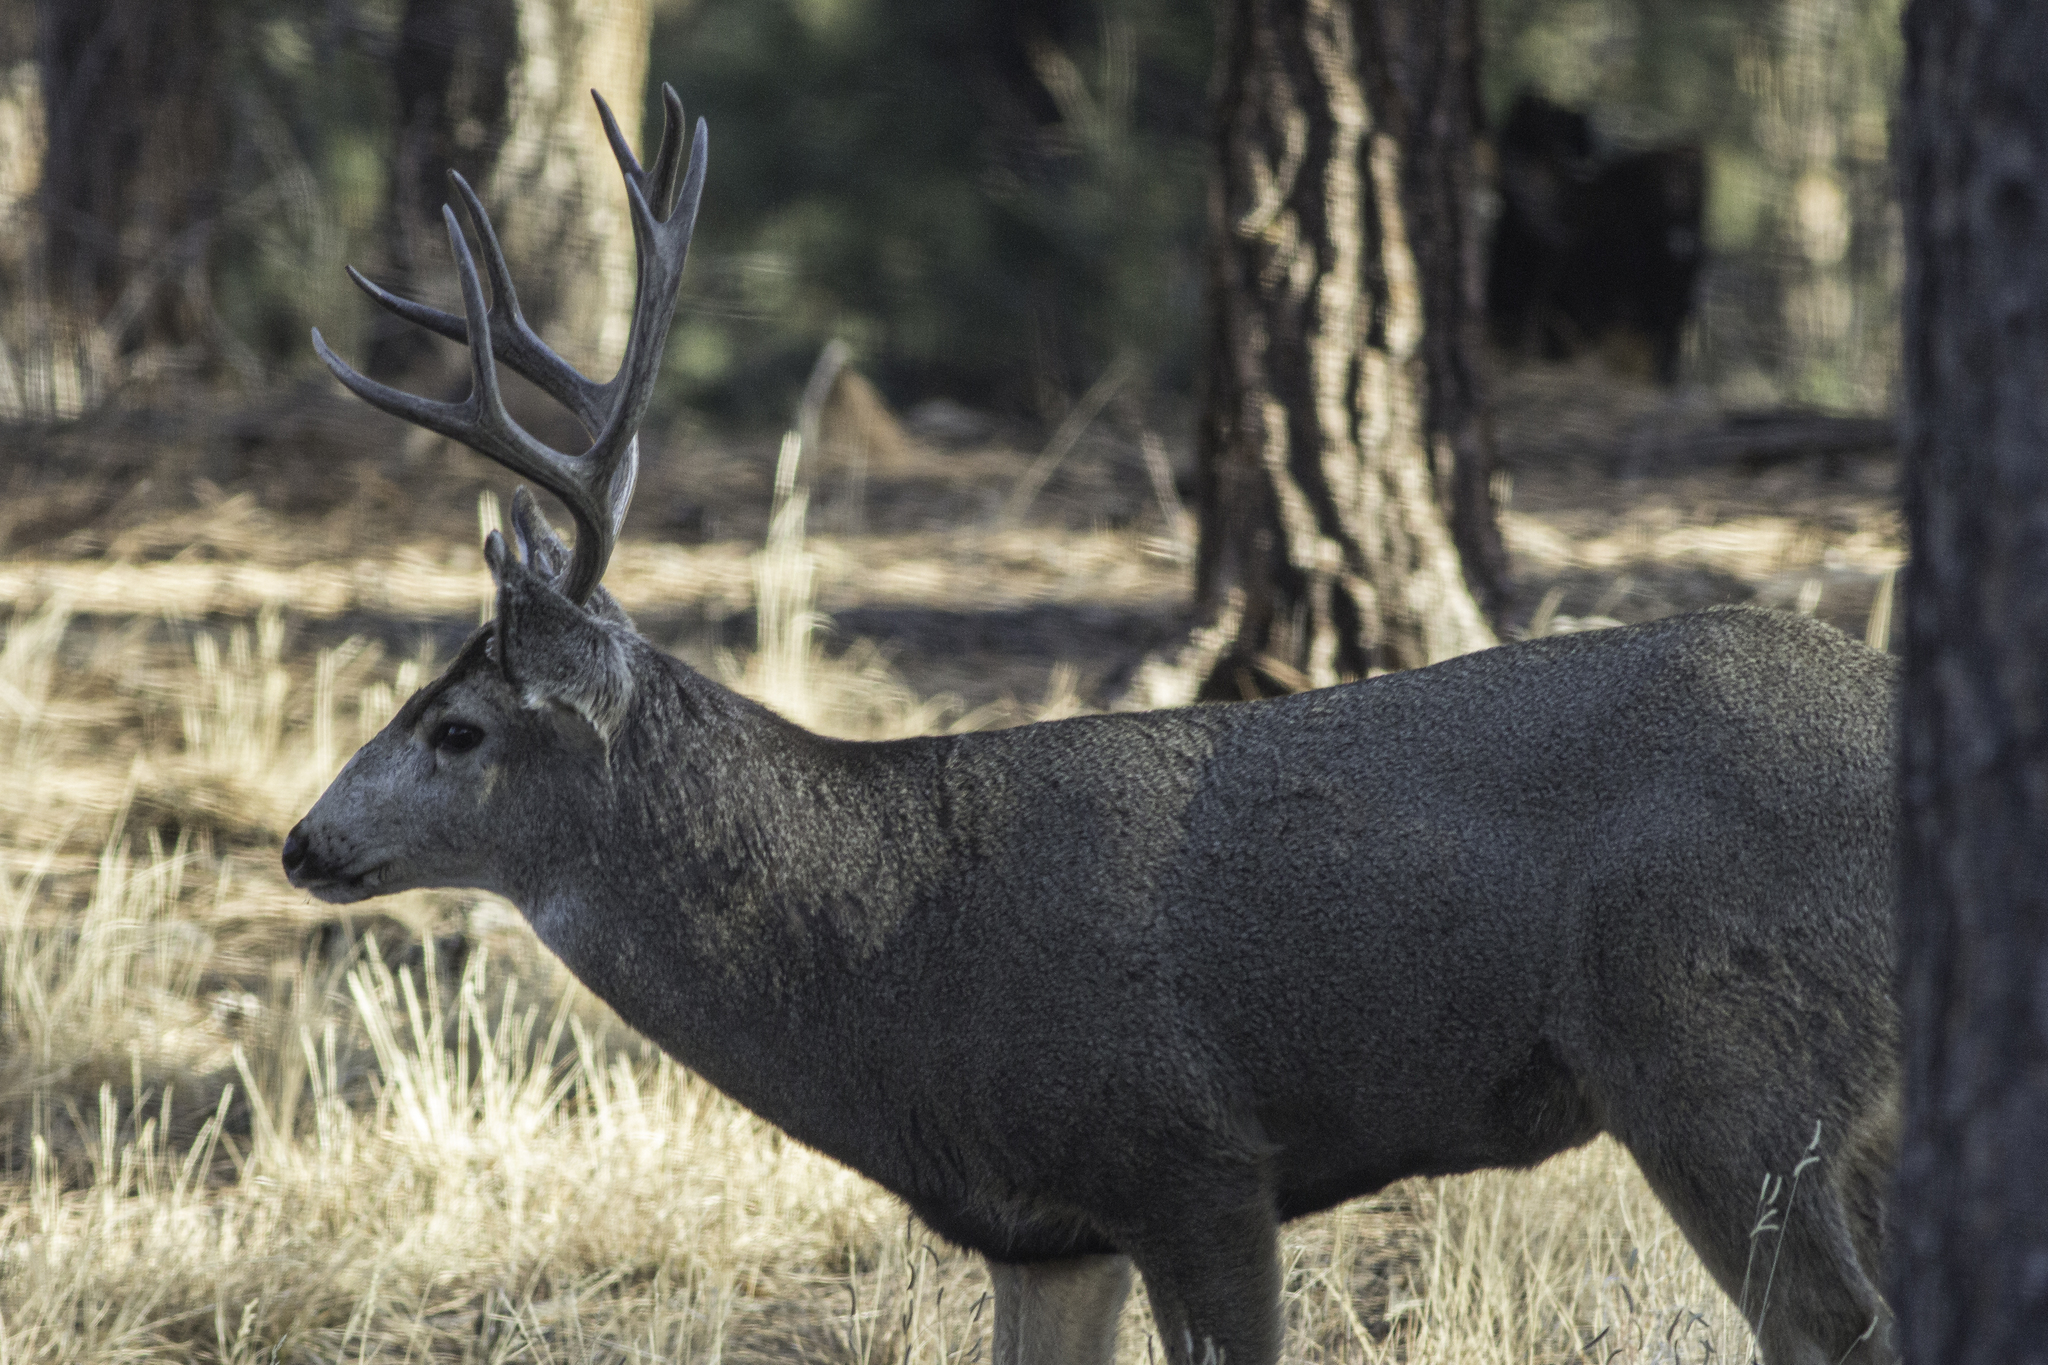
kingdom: Animalia
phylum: Chordata
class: Mammalia
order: Artiodactyla
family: Cervidae
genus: Odocoileus
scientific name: Odocoileus hemionus
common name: Mule deer
